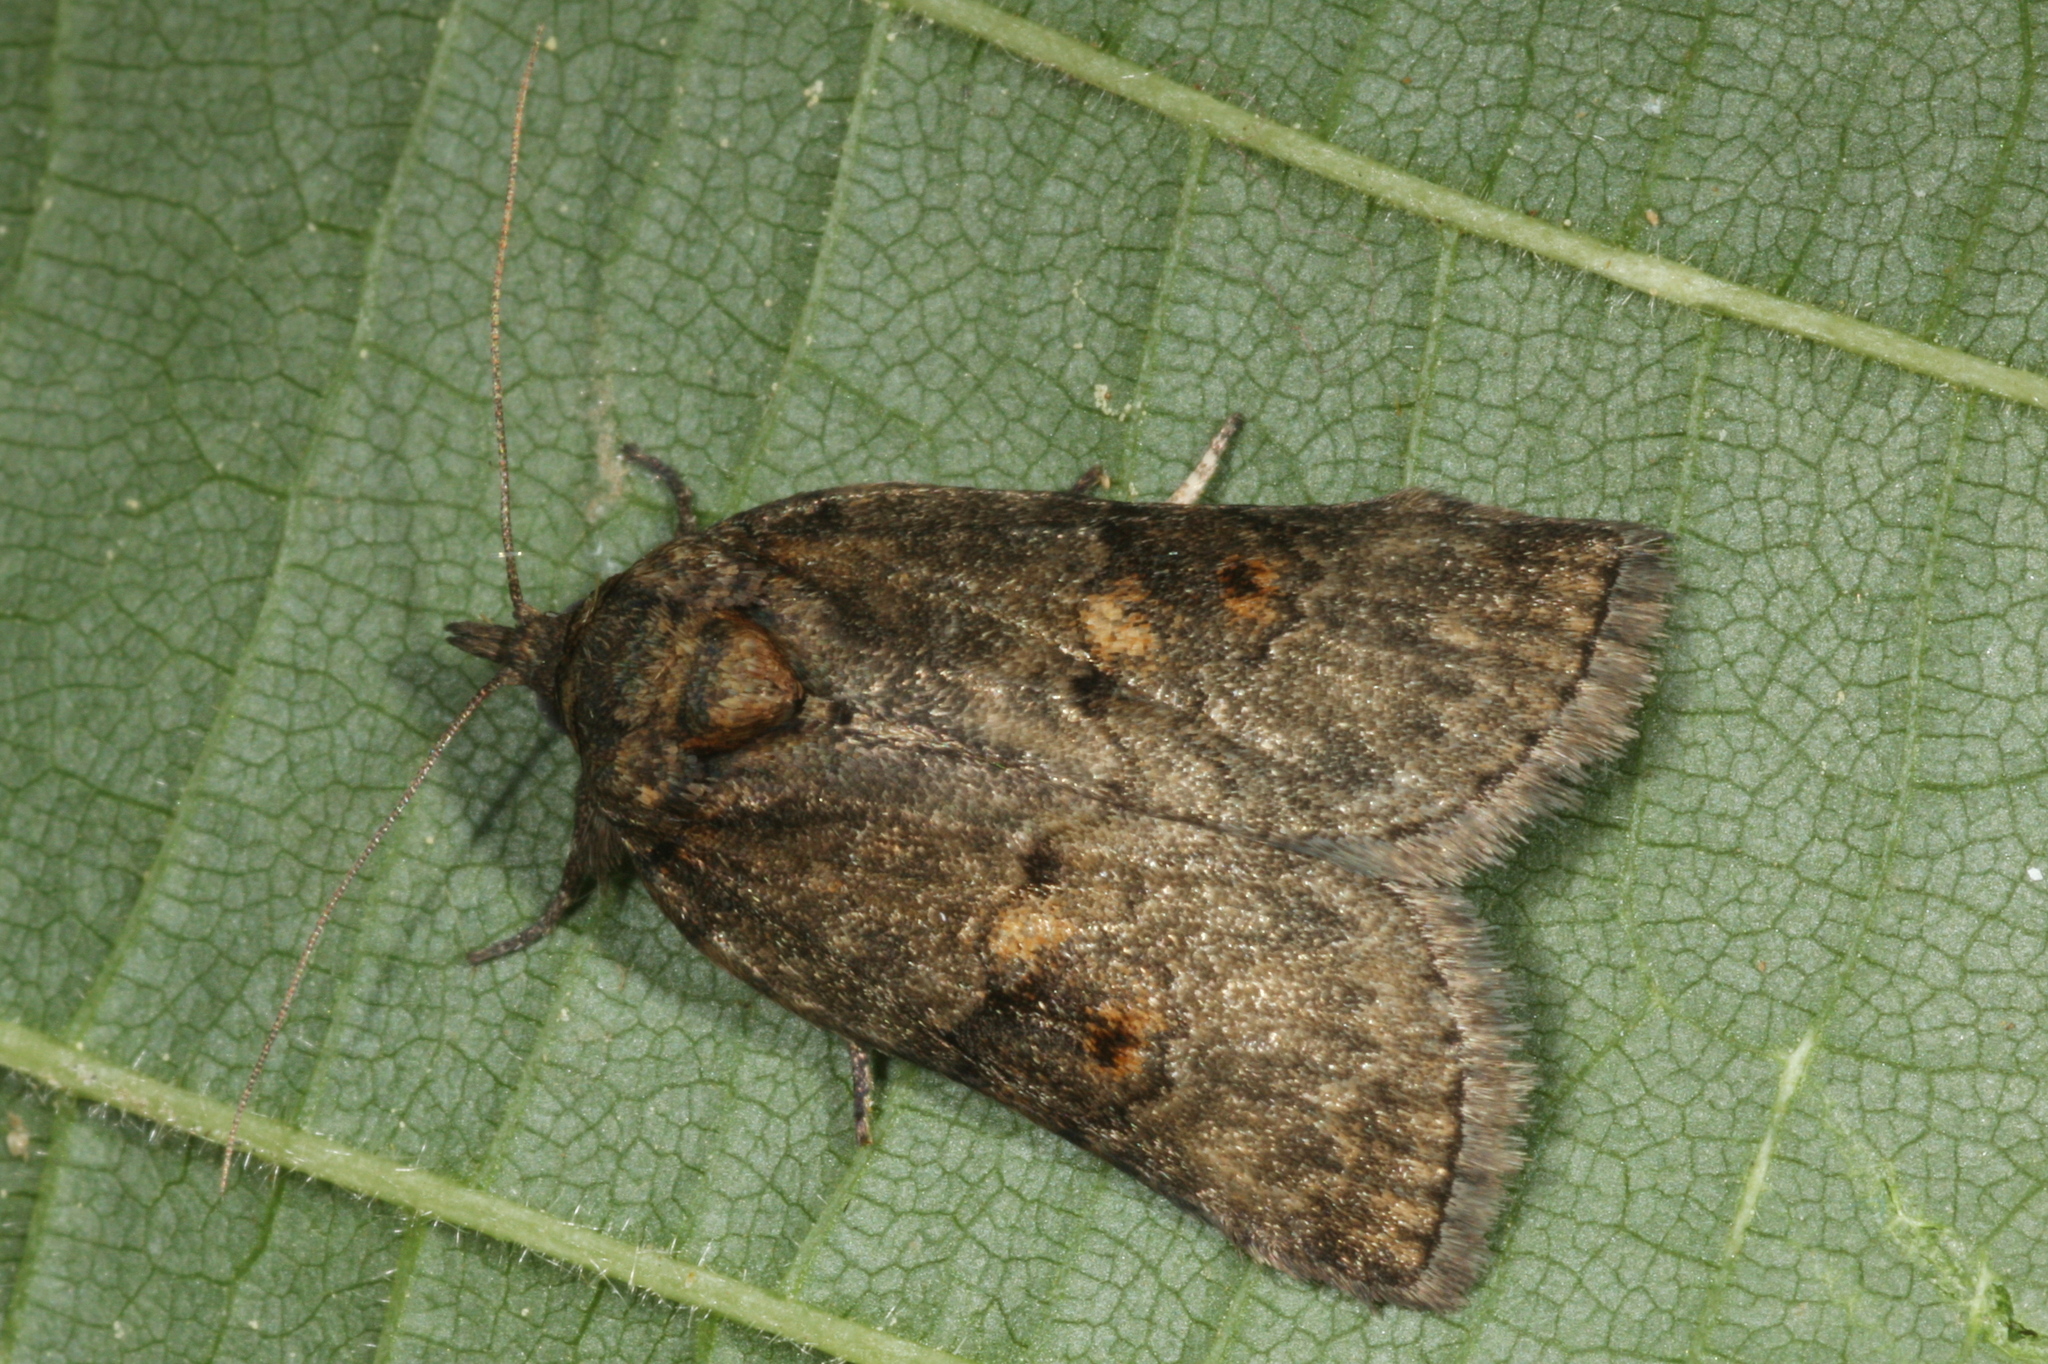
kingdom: Animalia
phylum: Arthropoda
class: Insecta
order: Lepidoptera
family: Nolidae
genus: Nycteola
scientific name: Nycteola revayana
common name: Oak nycteoline
